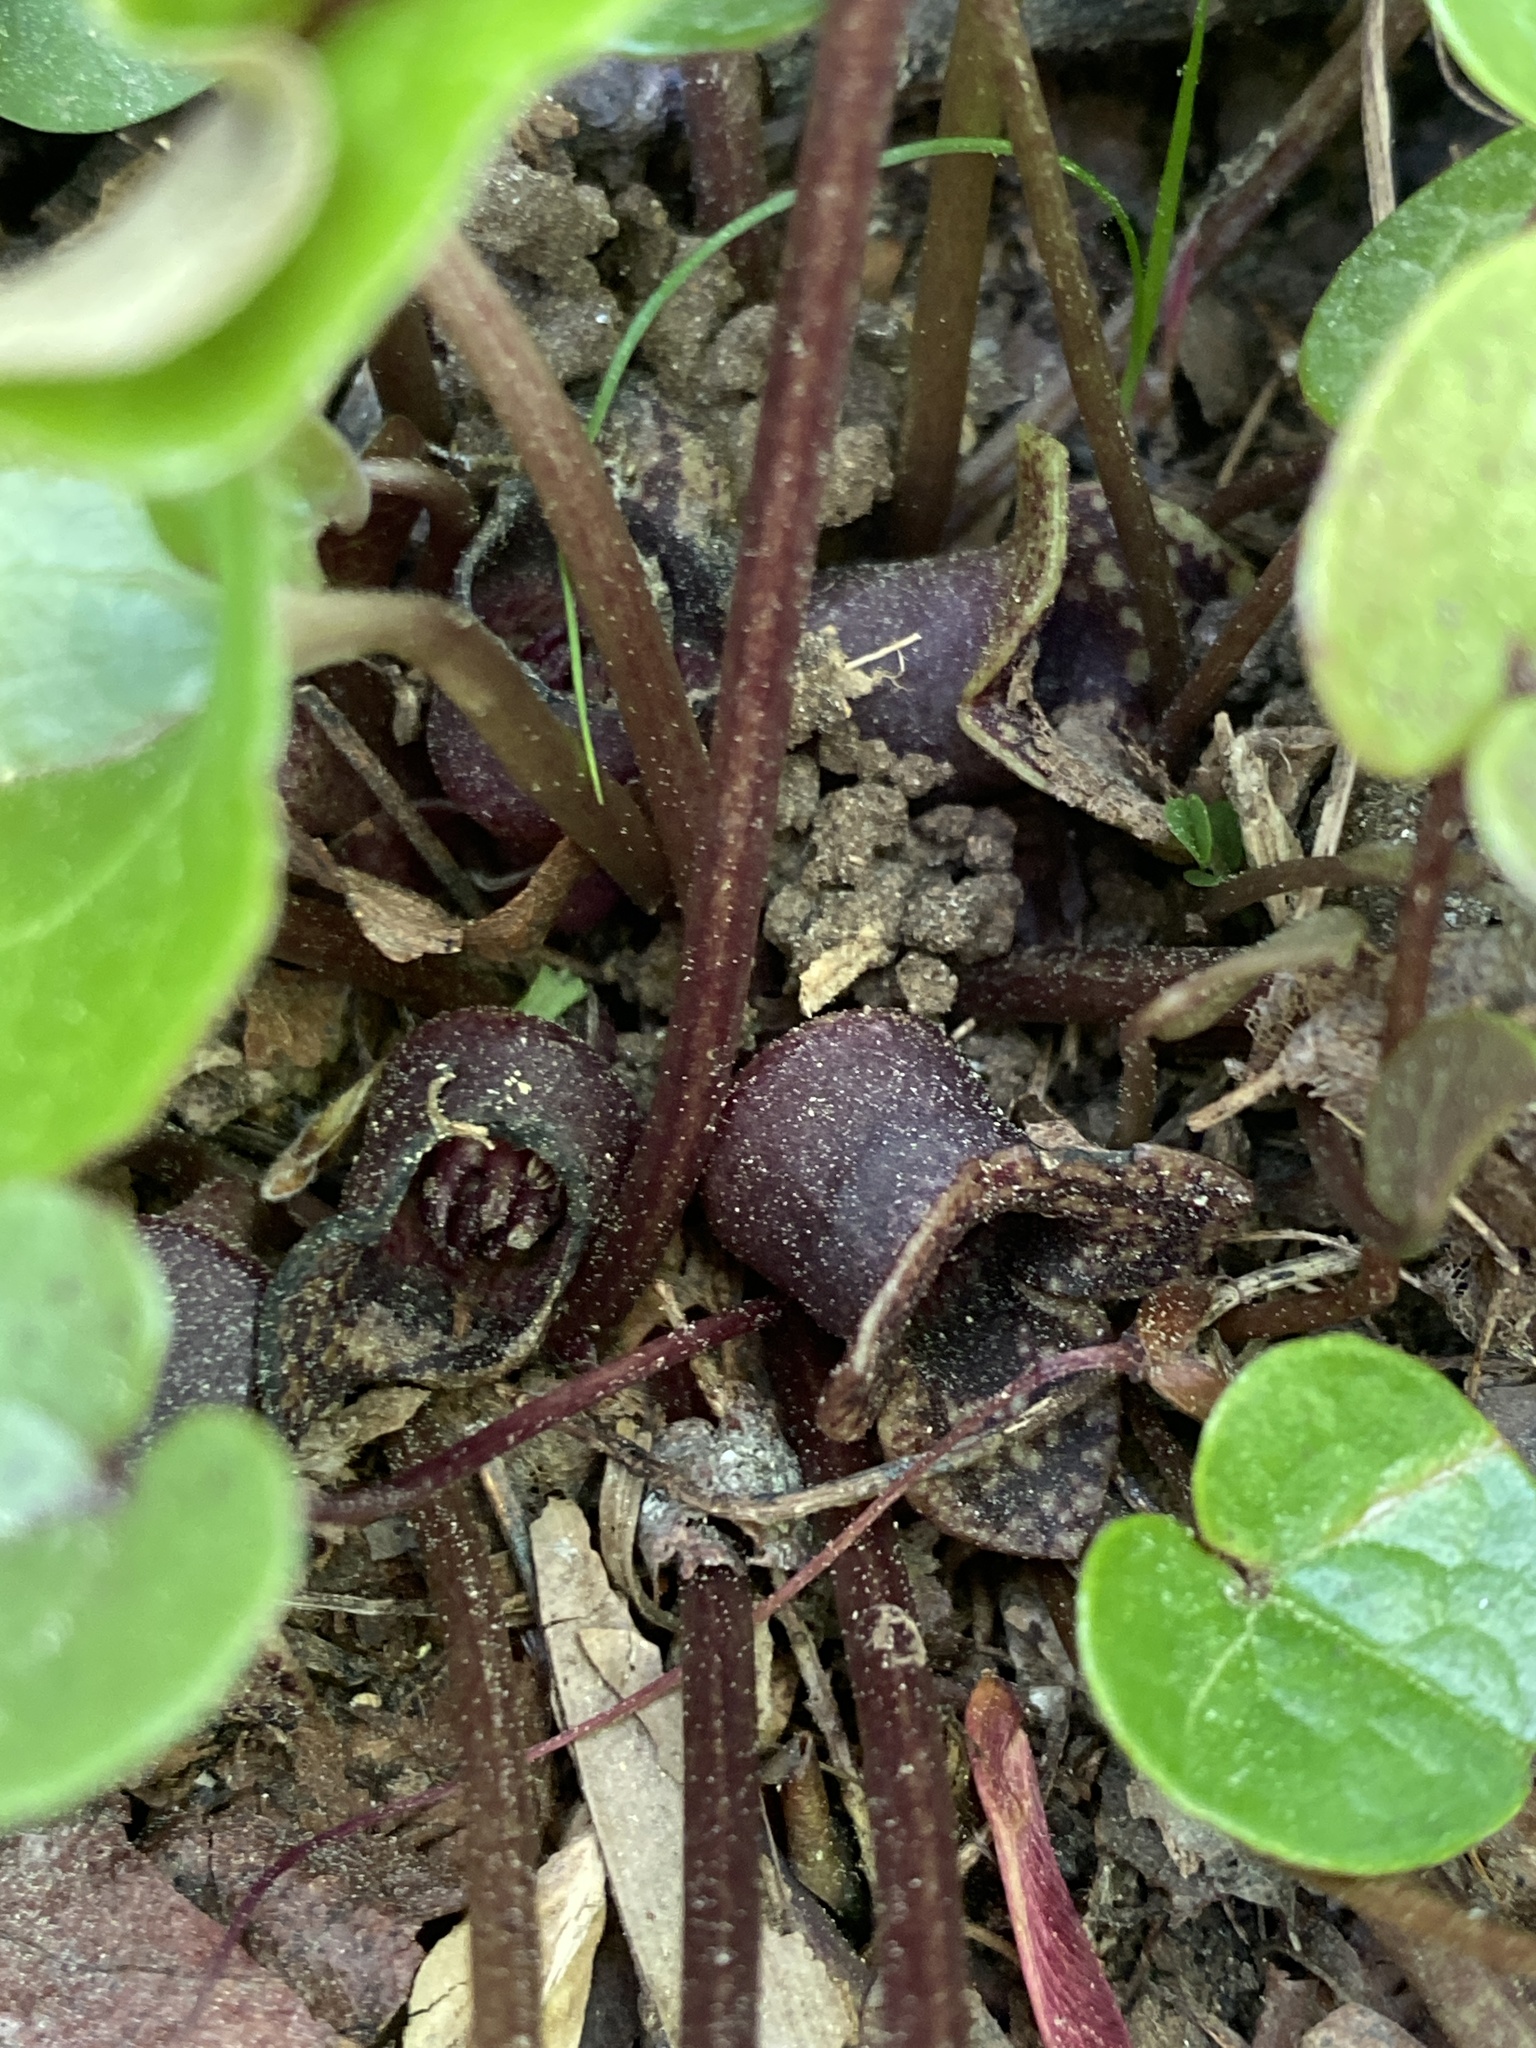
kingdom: Plantae
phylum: Tracheophyta
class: Magnoliopsida
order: Piperales
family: Aristolochiaceae
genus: Hexastylis
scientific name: Hexastylis heterophylla
